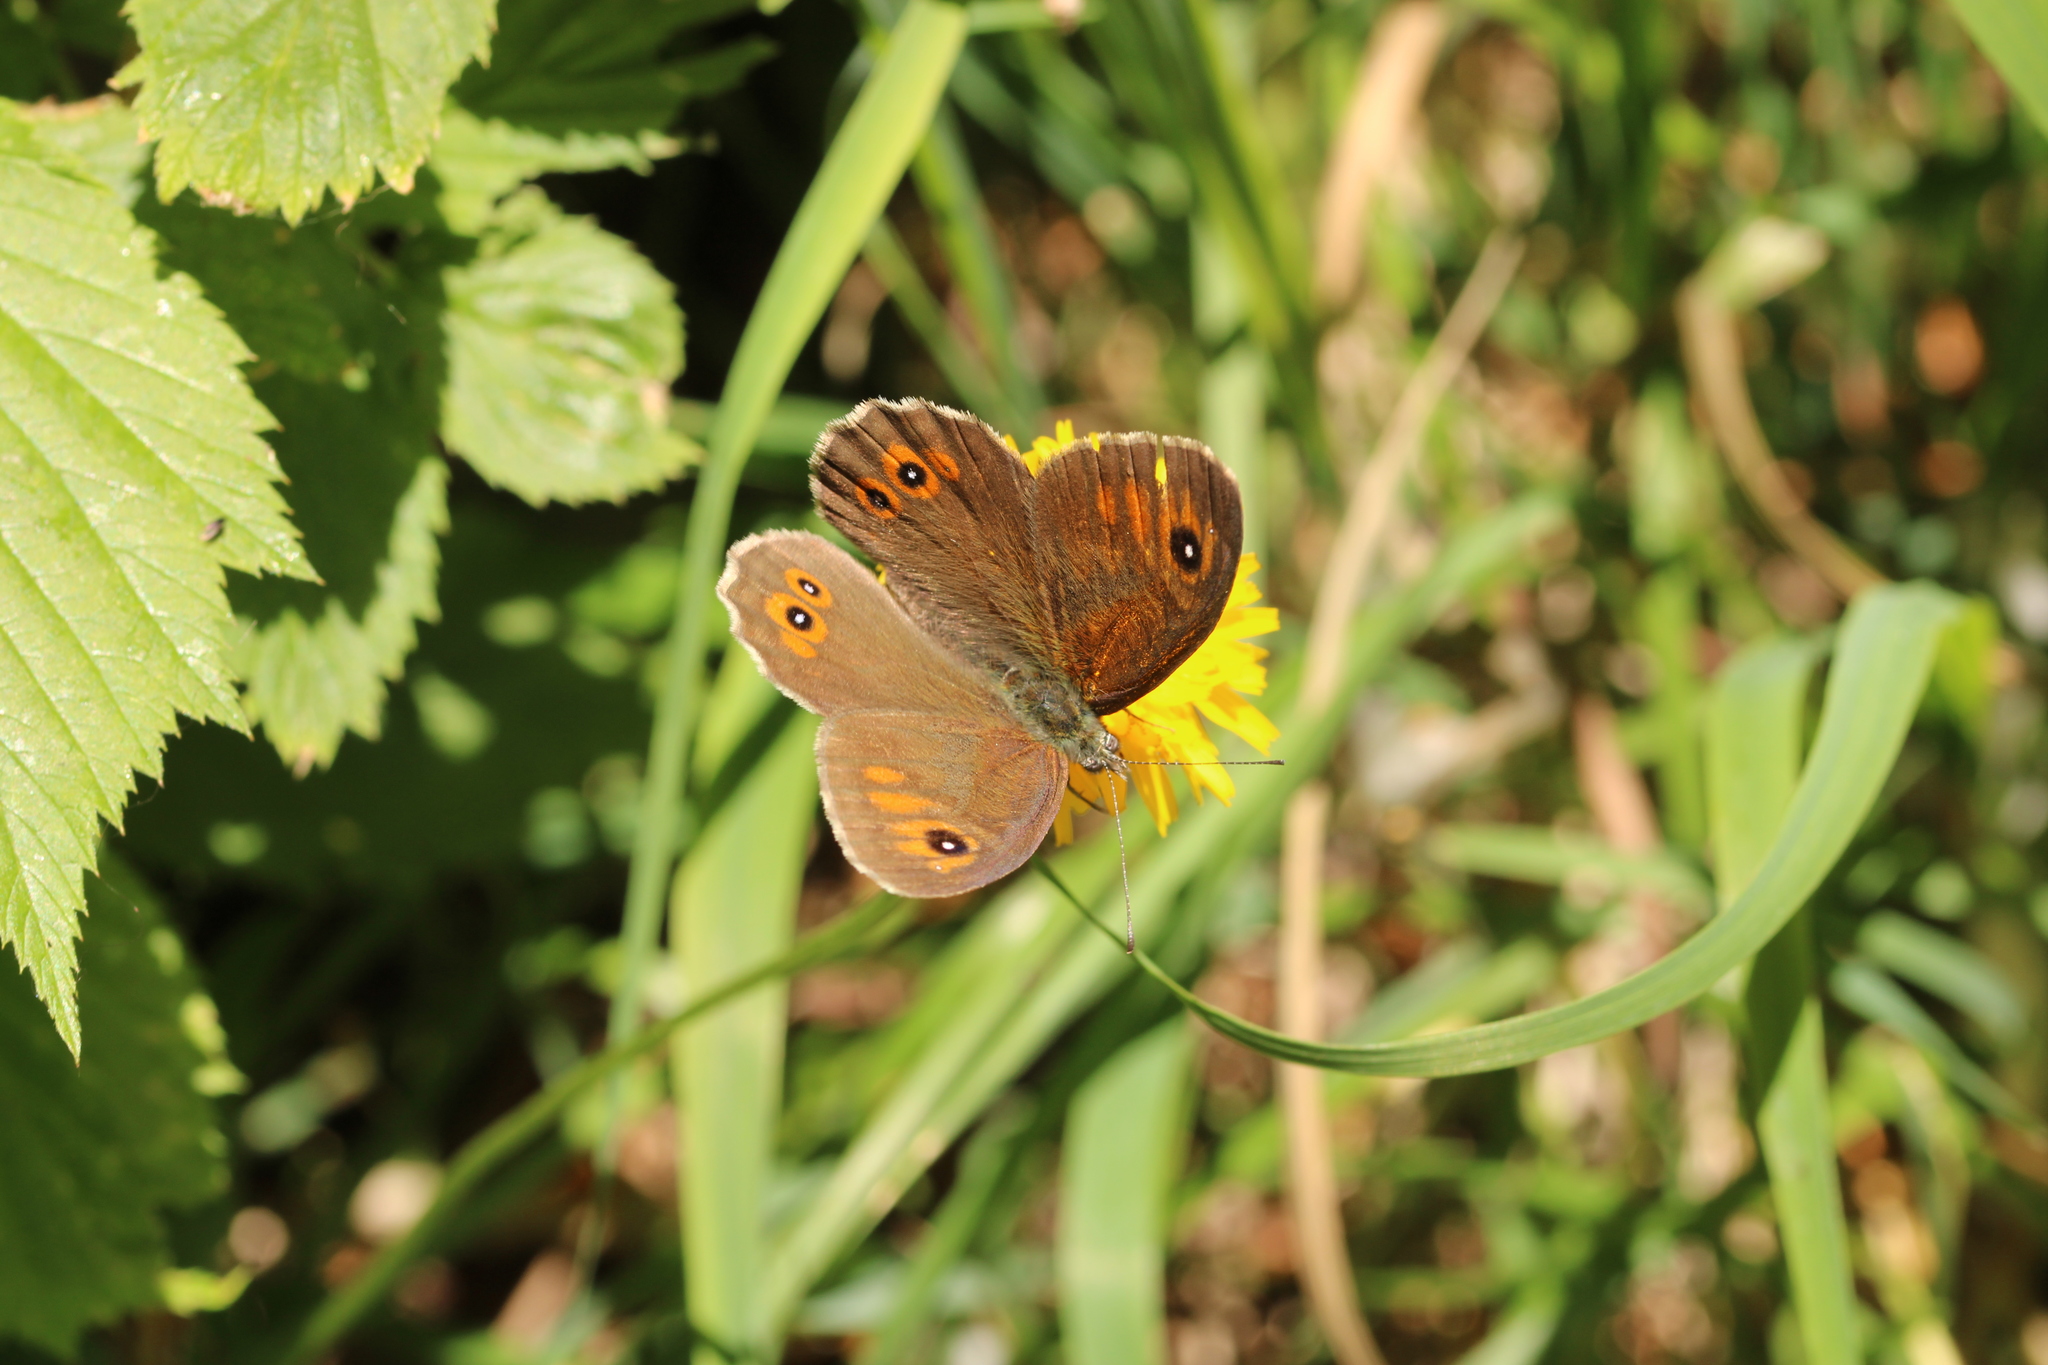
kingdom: Animalia
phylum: Arthropoda
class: Insecta
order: Lepidoptera
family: Nymphalidae
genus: Pararge
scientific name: Pararge Lasiommata maera
